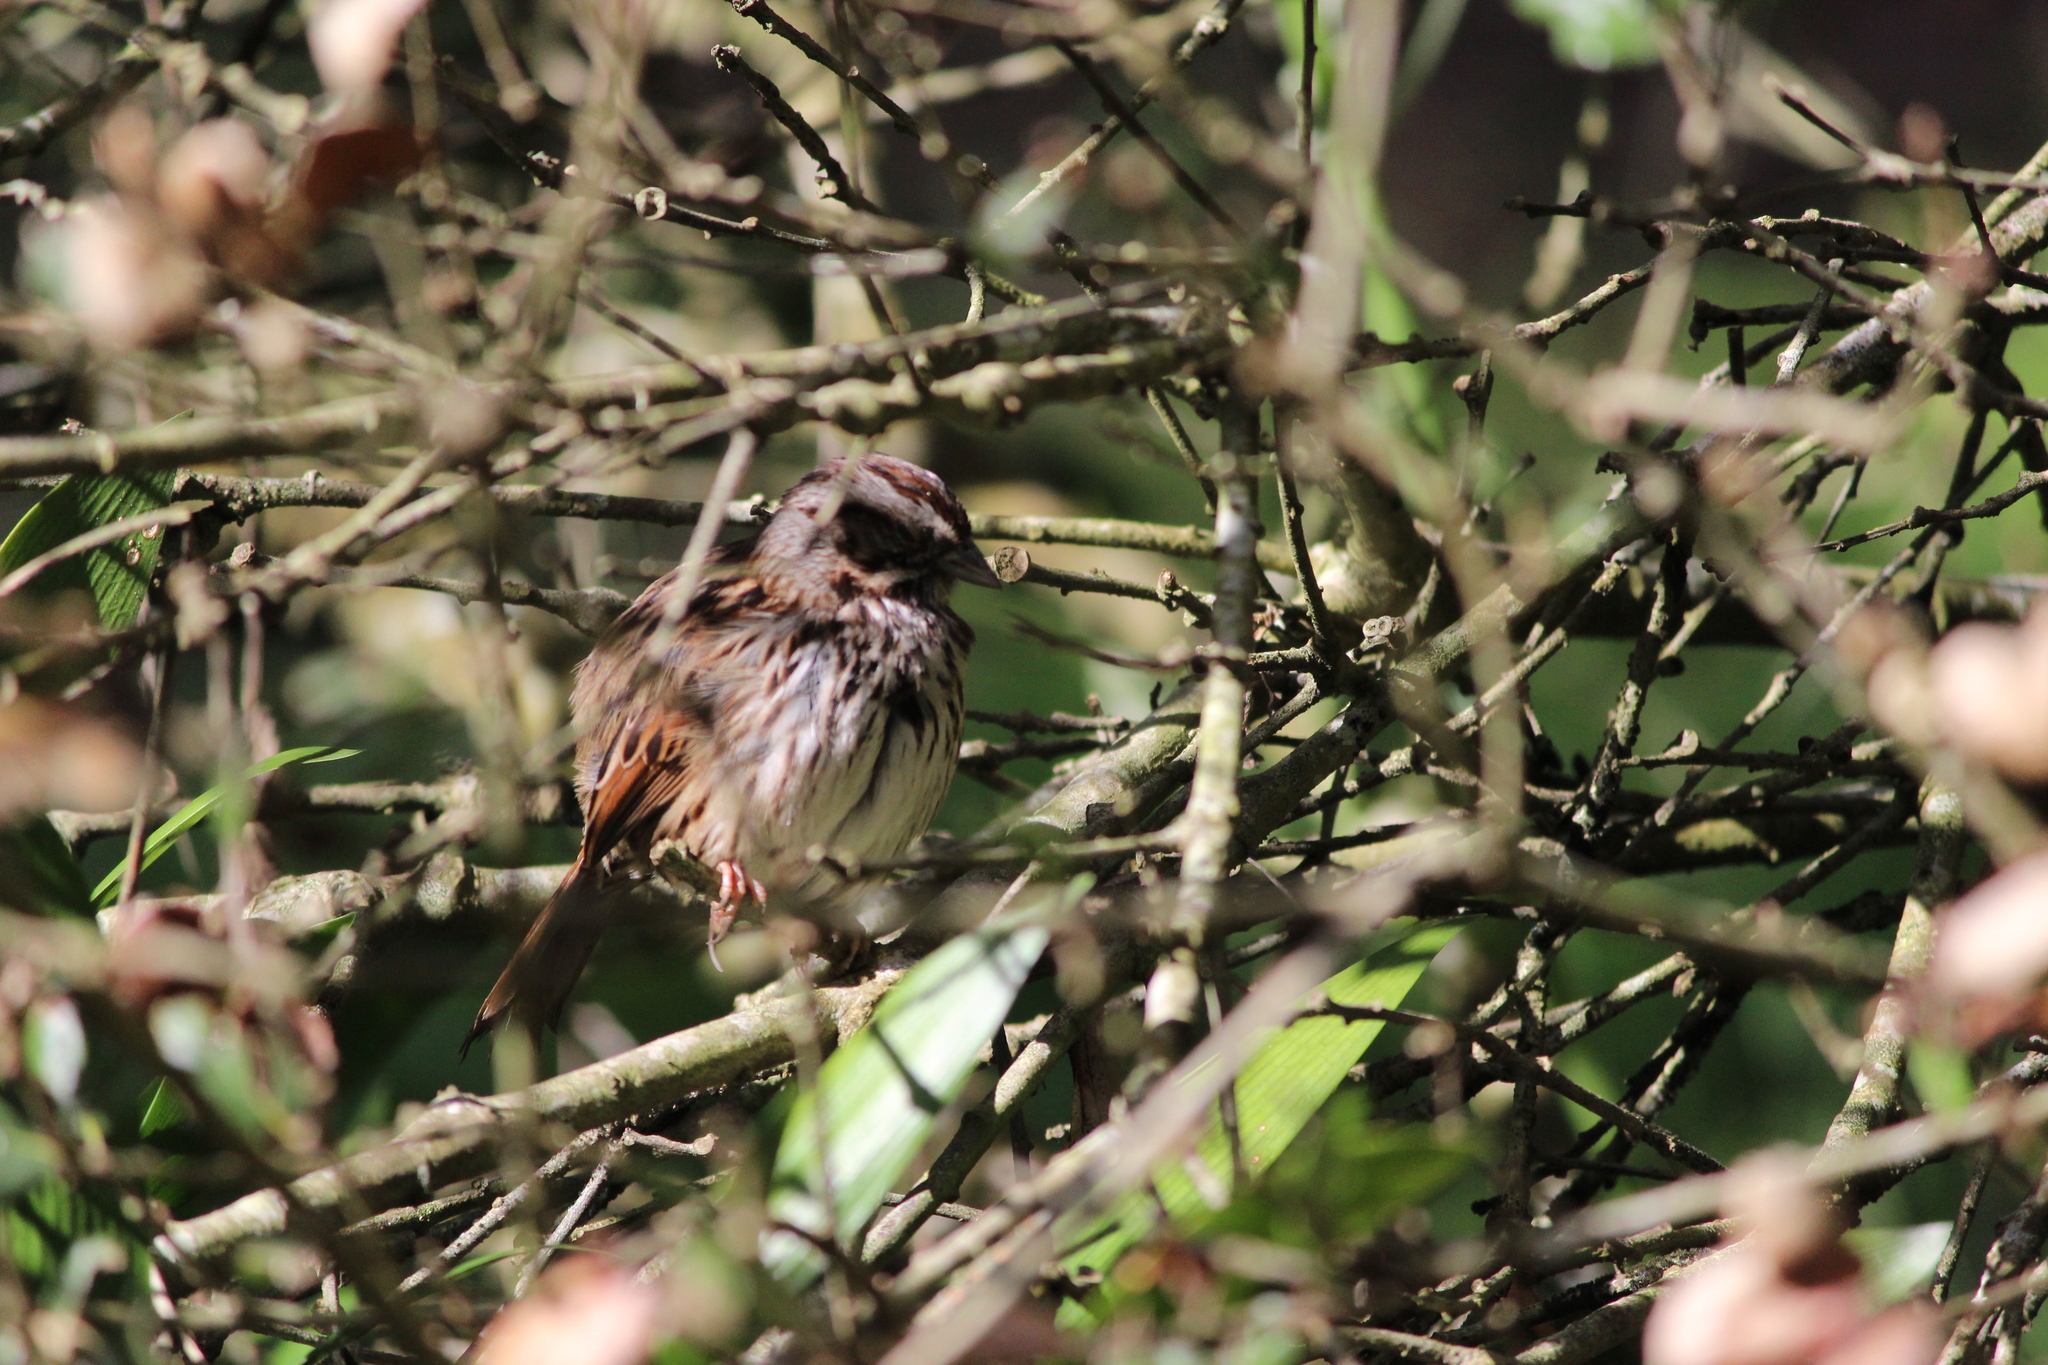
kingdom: Animalia
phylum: Chordata
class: Aves
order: Passeriformes
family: Passerellidae
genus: Melospiza
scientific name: Melospiza melodia
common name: Song sparrow
